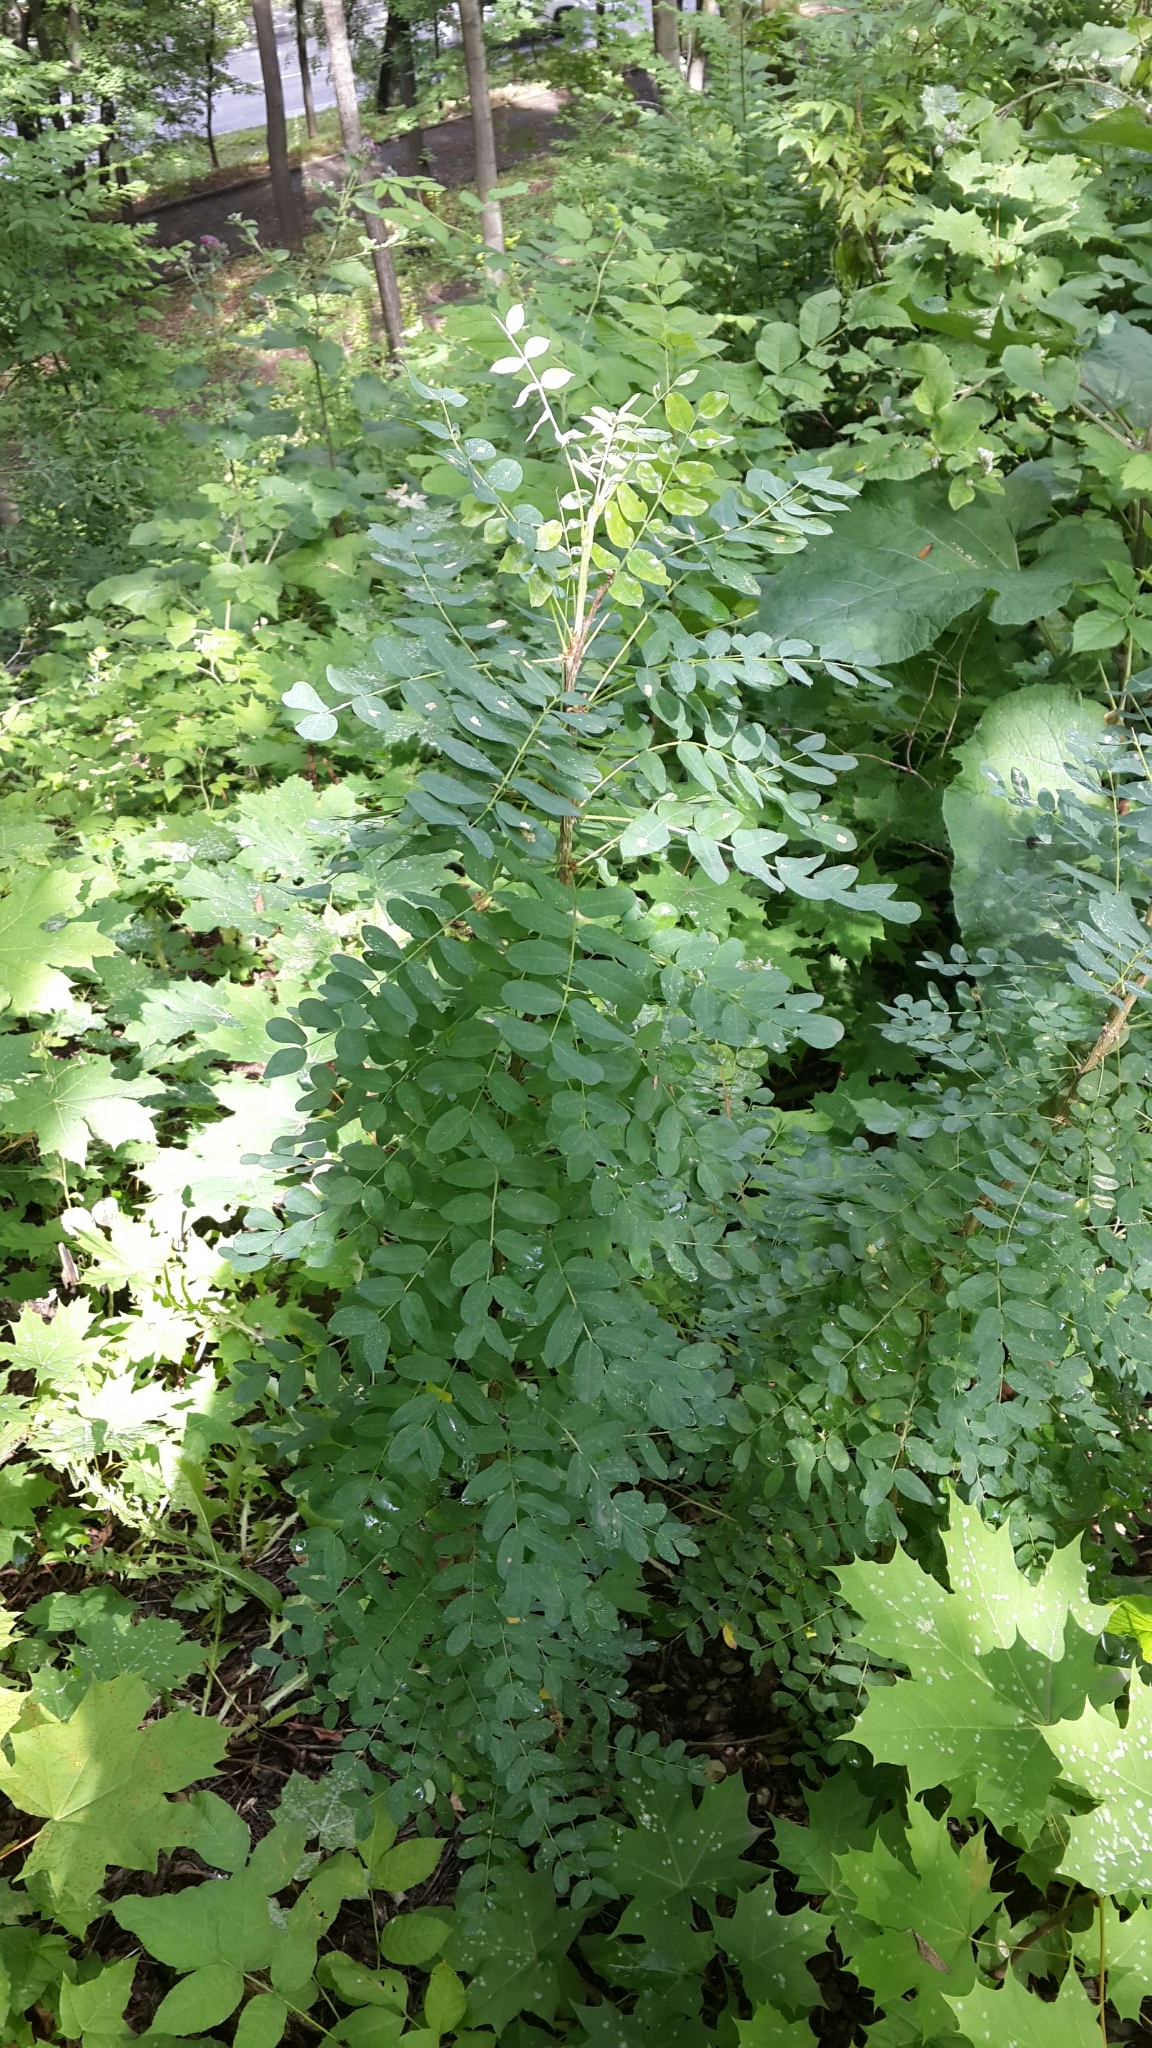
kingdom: Plantae
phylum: Tracheophyta
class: Magnoliopsida
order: Fabales
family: Fabaceae
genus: Caragana
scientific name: Caragana arborescens
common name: Siberian peashrub
